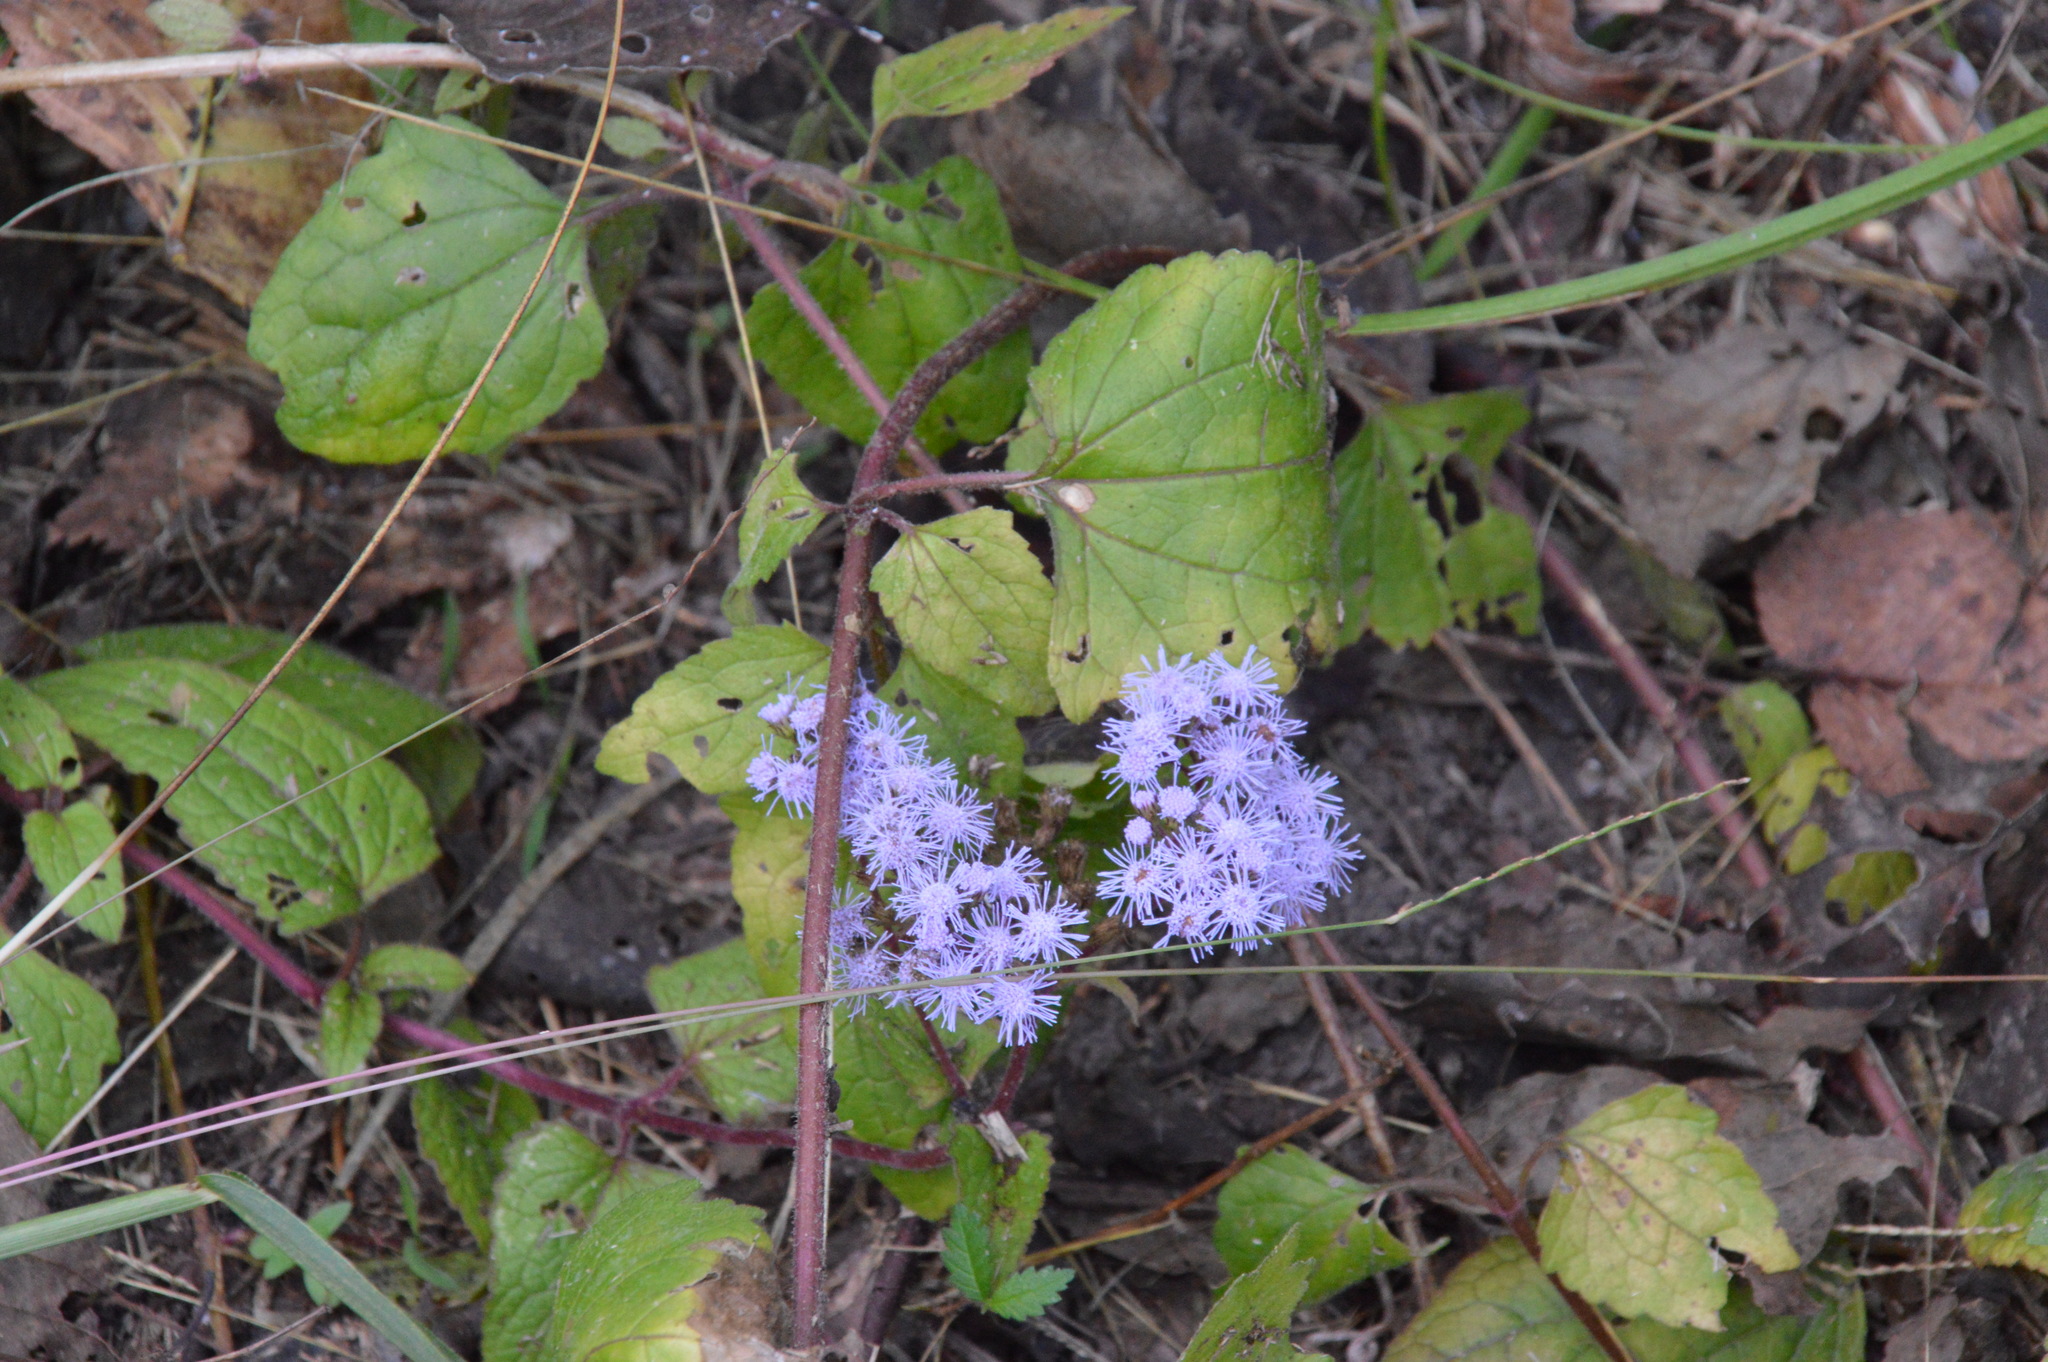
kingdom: Plantae
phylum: Tracheophyta
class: Magnoliopsida
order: Asterales
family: Asteraceae
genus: Conoclinium
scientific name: Conoclinium coelestinum
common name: Blue mistflower
